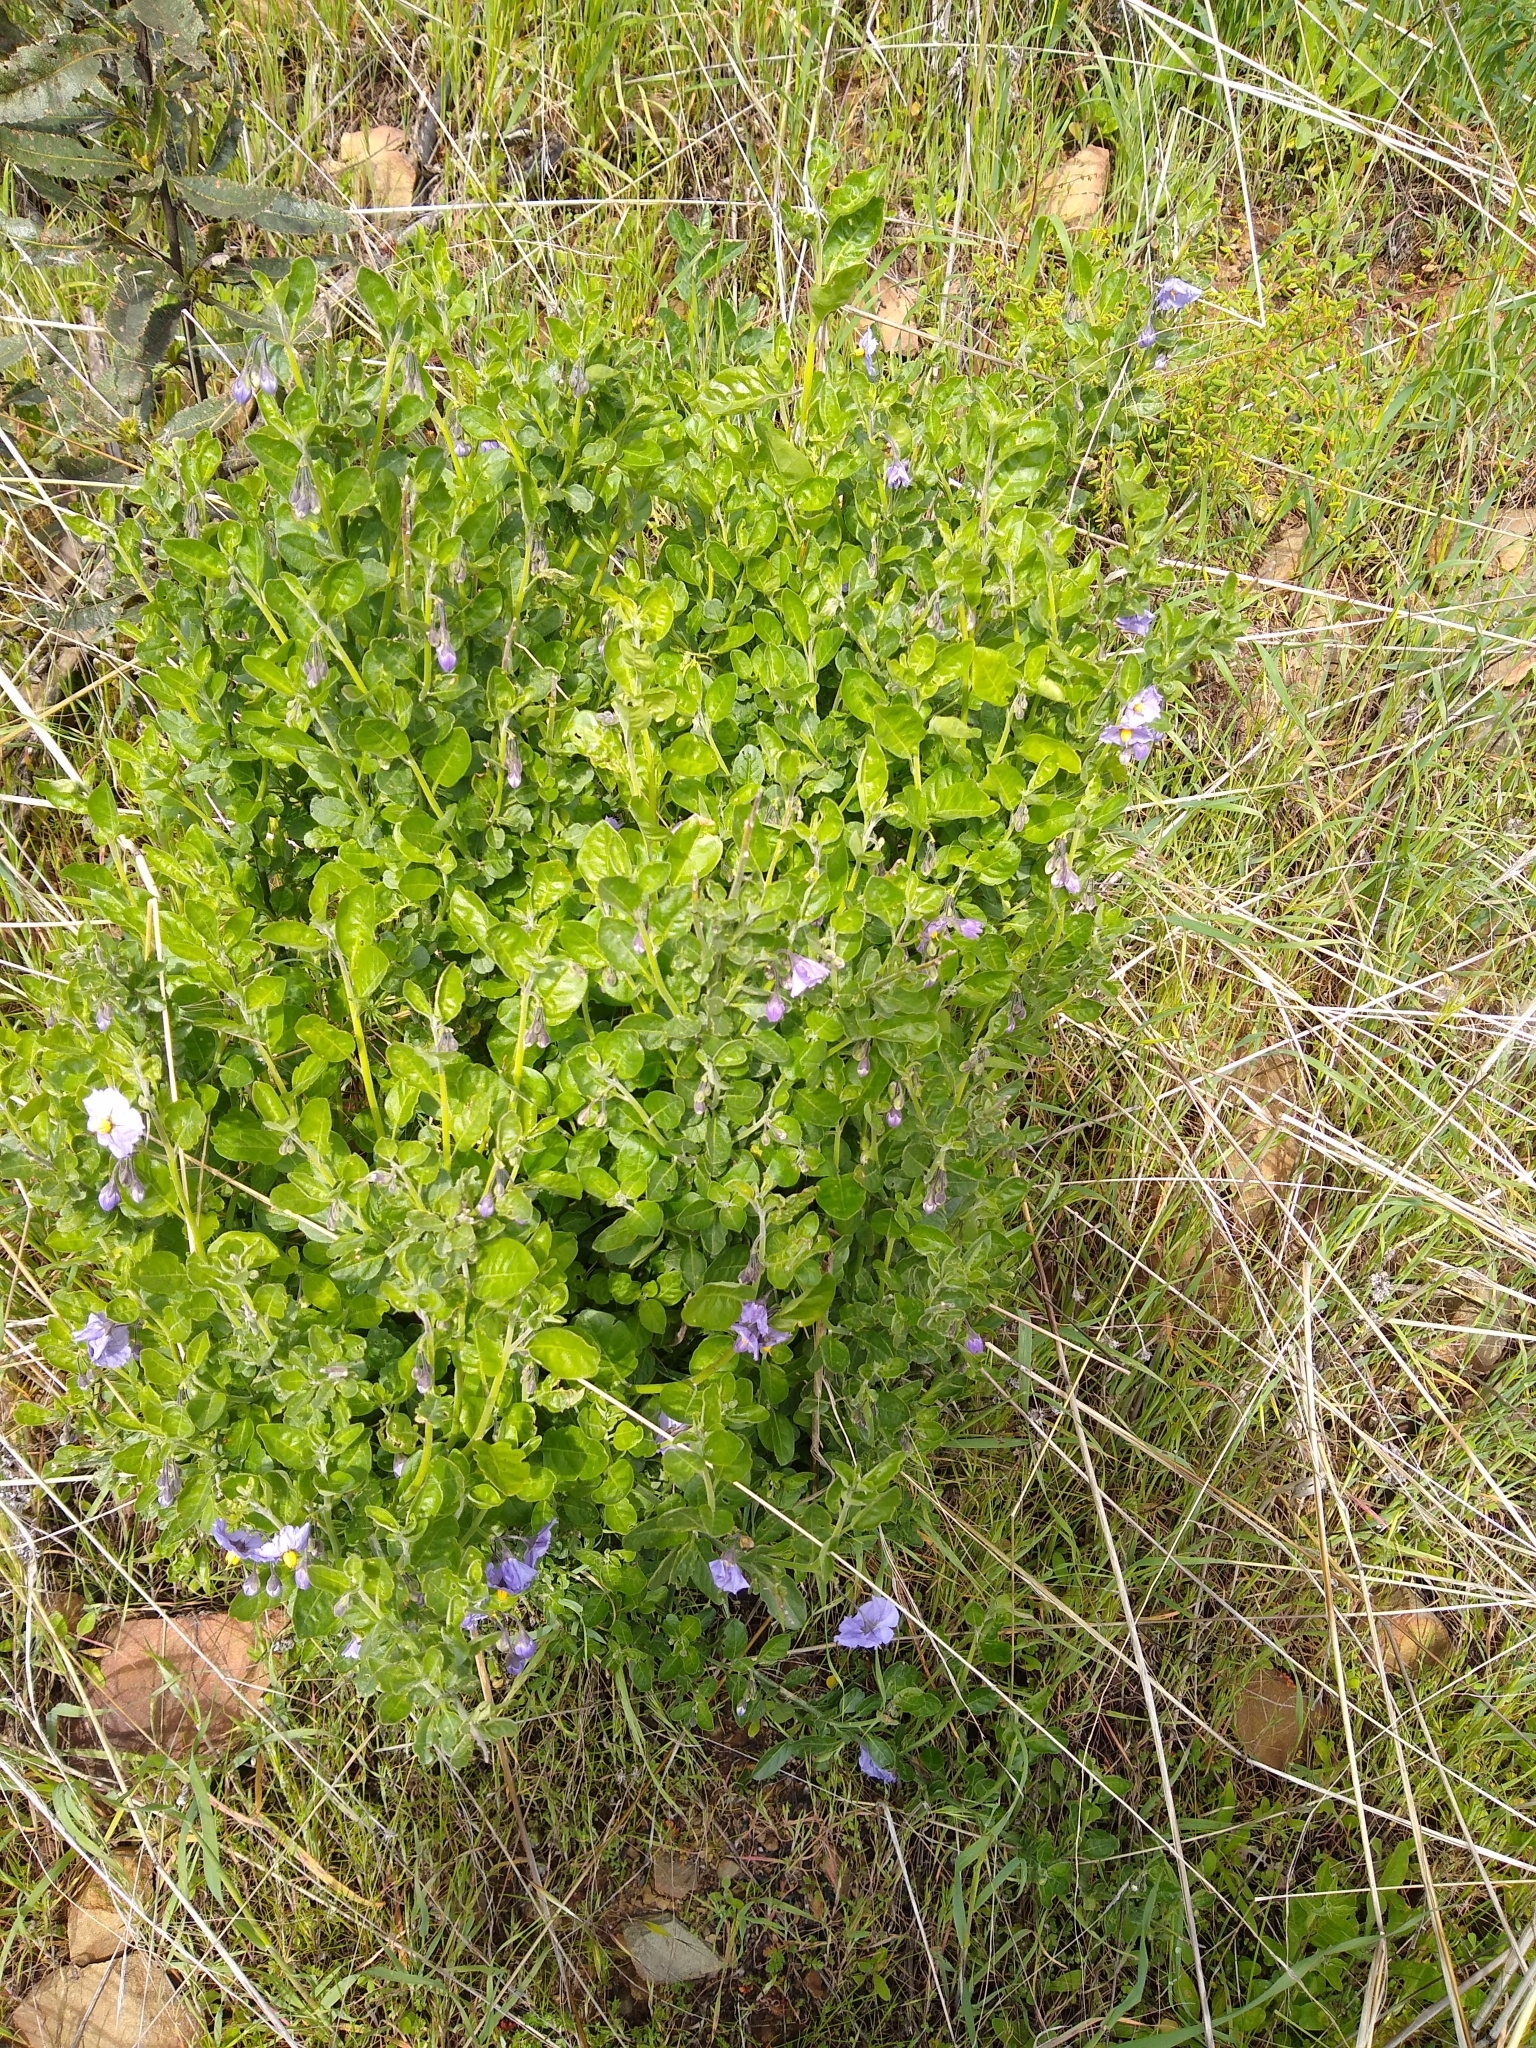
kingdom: Plantae
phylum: Tracheophyta
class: Magnoliopsida
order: Solanales
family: Solanaceae
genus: Solanum
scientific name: Solanum umbelliferum
